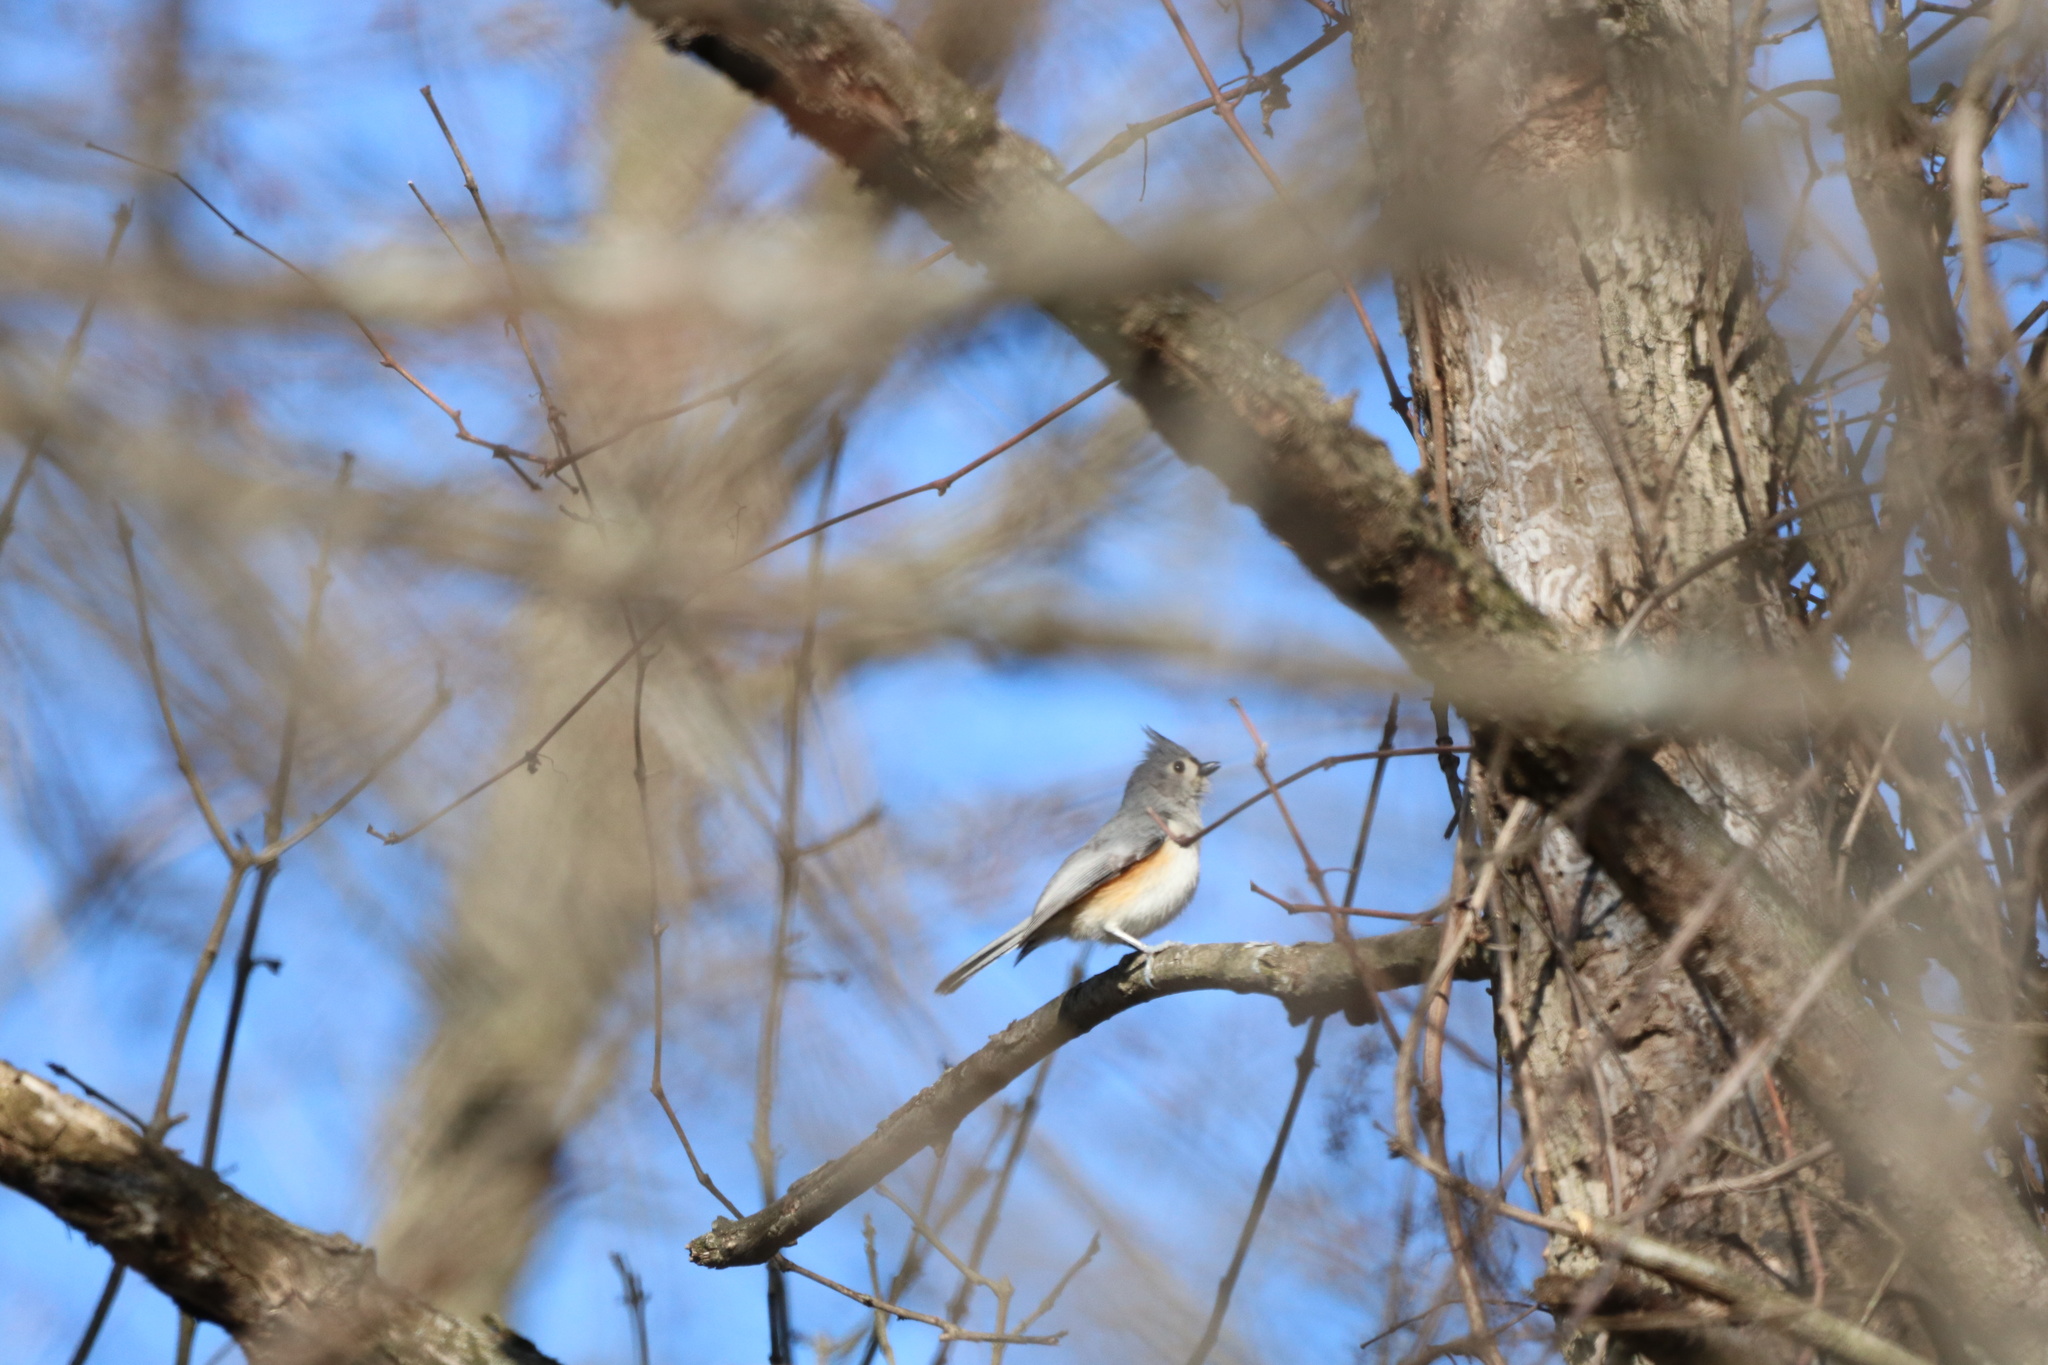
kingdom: Animalia
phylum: Chordata
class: Aves
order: Passeriformes
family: Paridae
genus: Baeolophus
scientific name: Baeolophus bicolor
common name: Tufted titmouse
